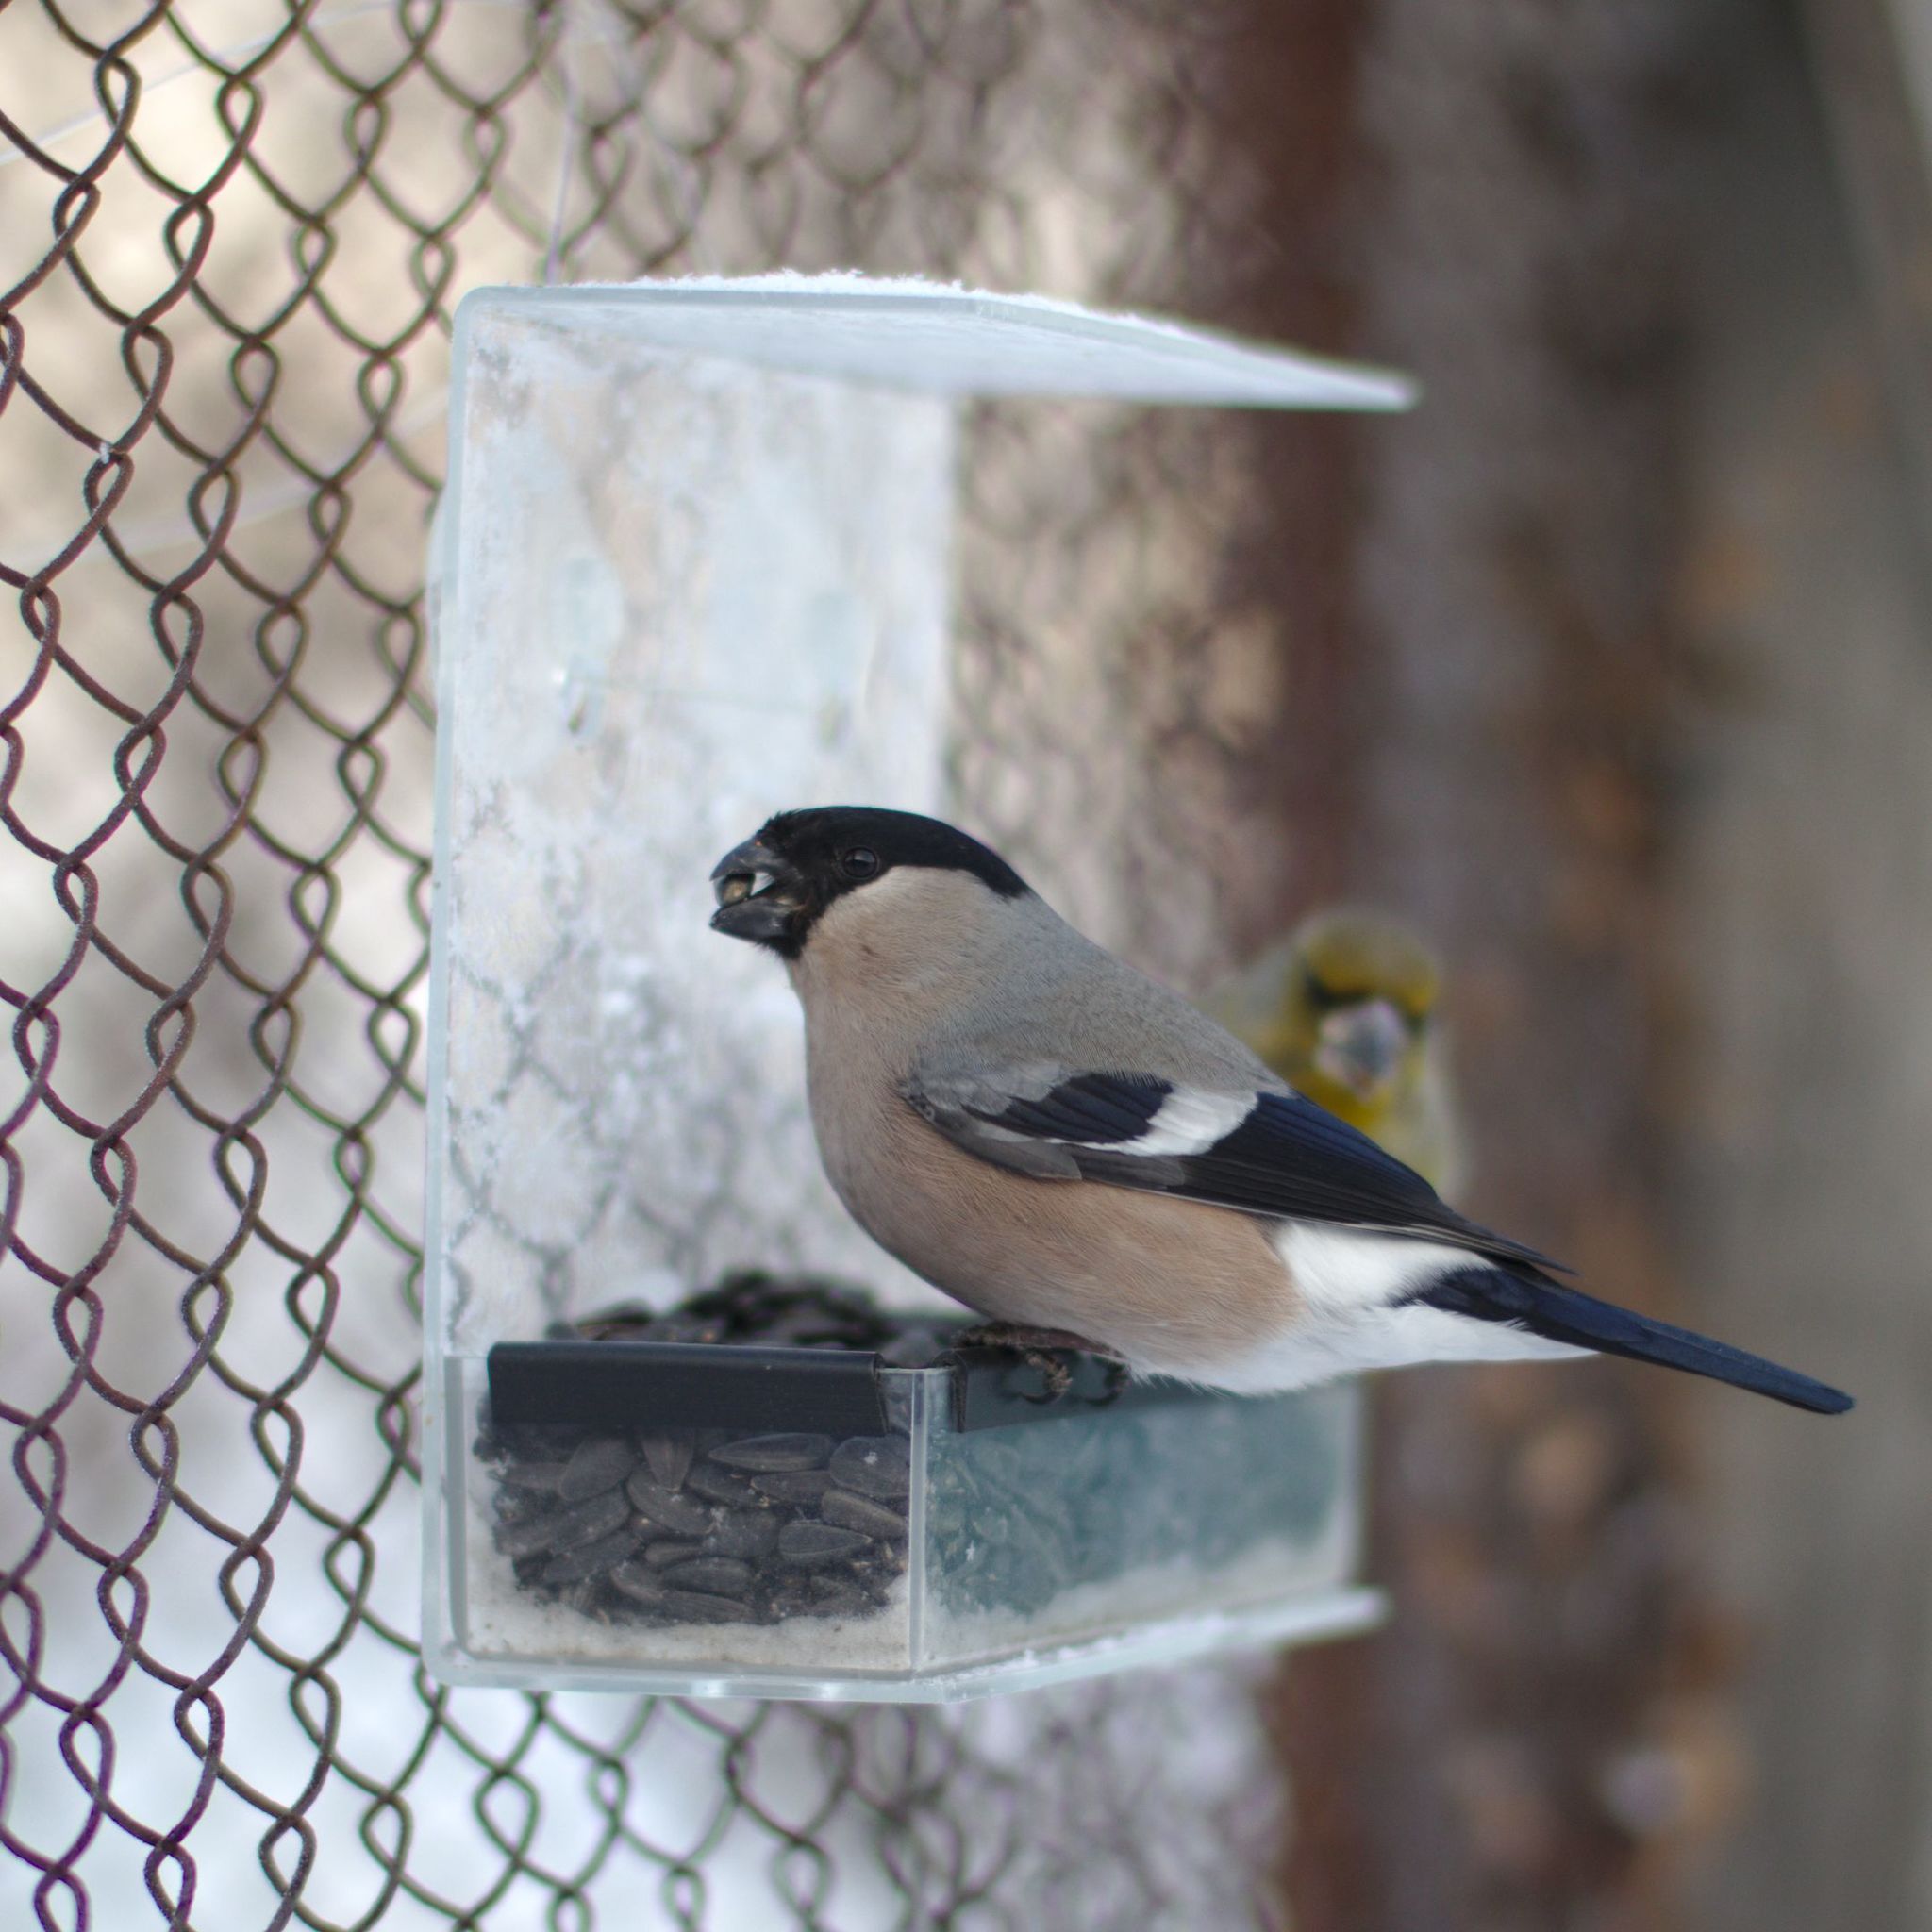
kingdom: Animalia
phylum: Chordata
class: Aves
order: Passeriformes
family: Fringillidae
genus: Pyrrhula
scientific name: Pyrrhula pyrrhula
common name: Eurasian bullfinch
